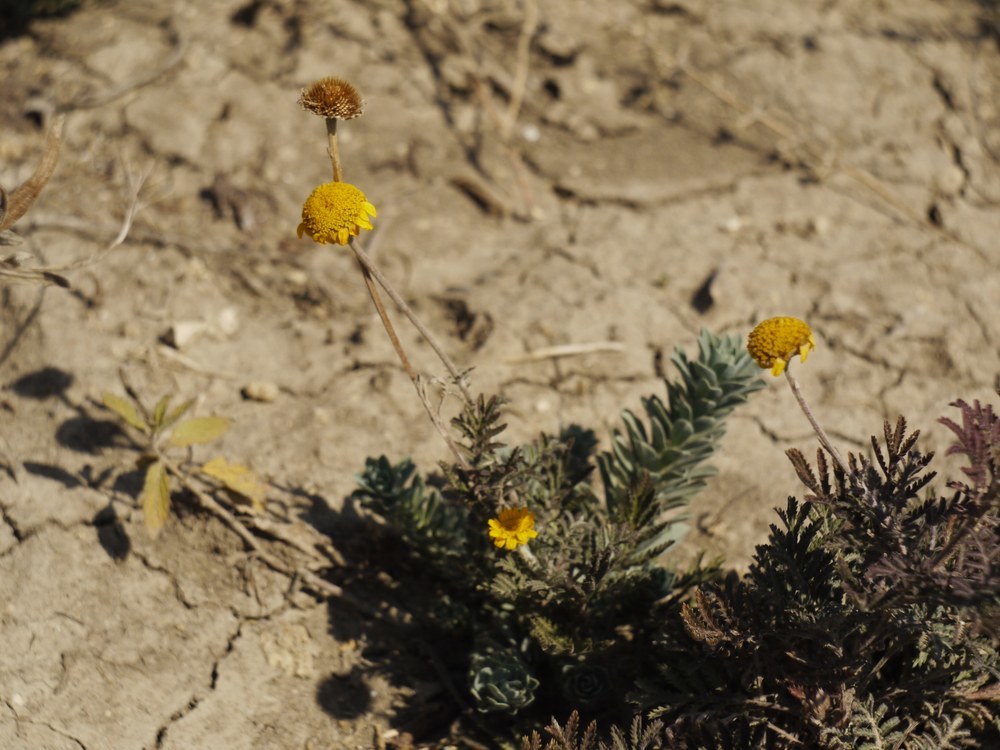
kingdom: Plantae
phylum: Tracheophyta
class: Magnoliopsida
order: Asterales
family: Asteraceae
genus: Cota
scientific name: Cota tinctoria
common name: Golden chamomile
